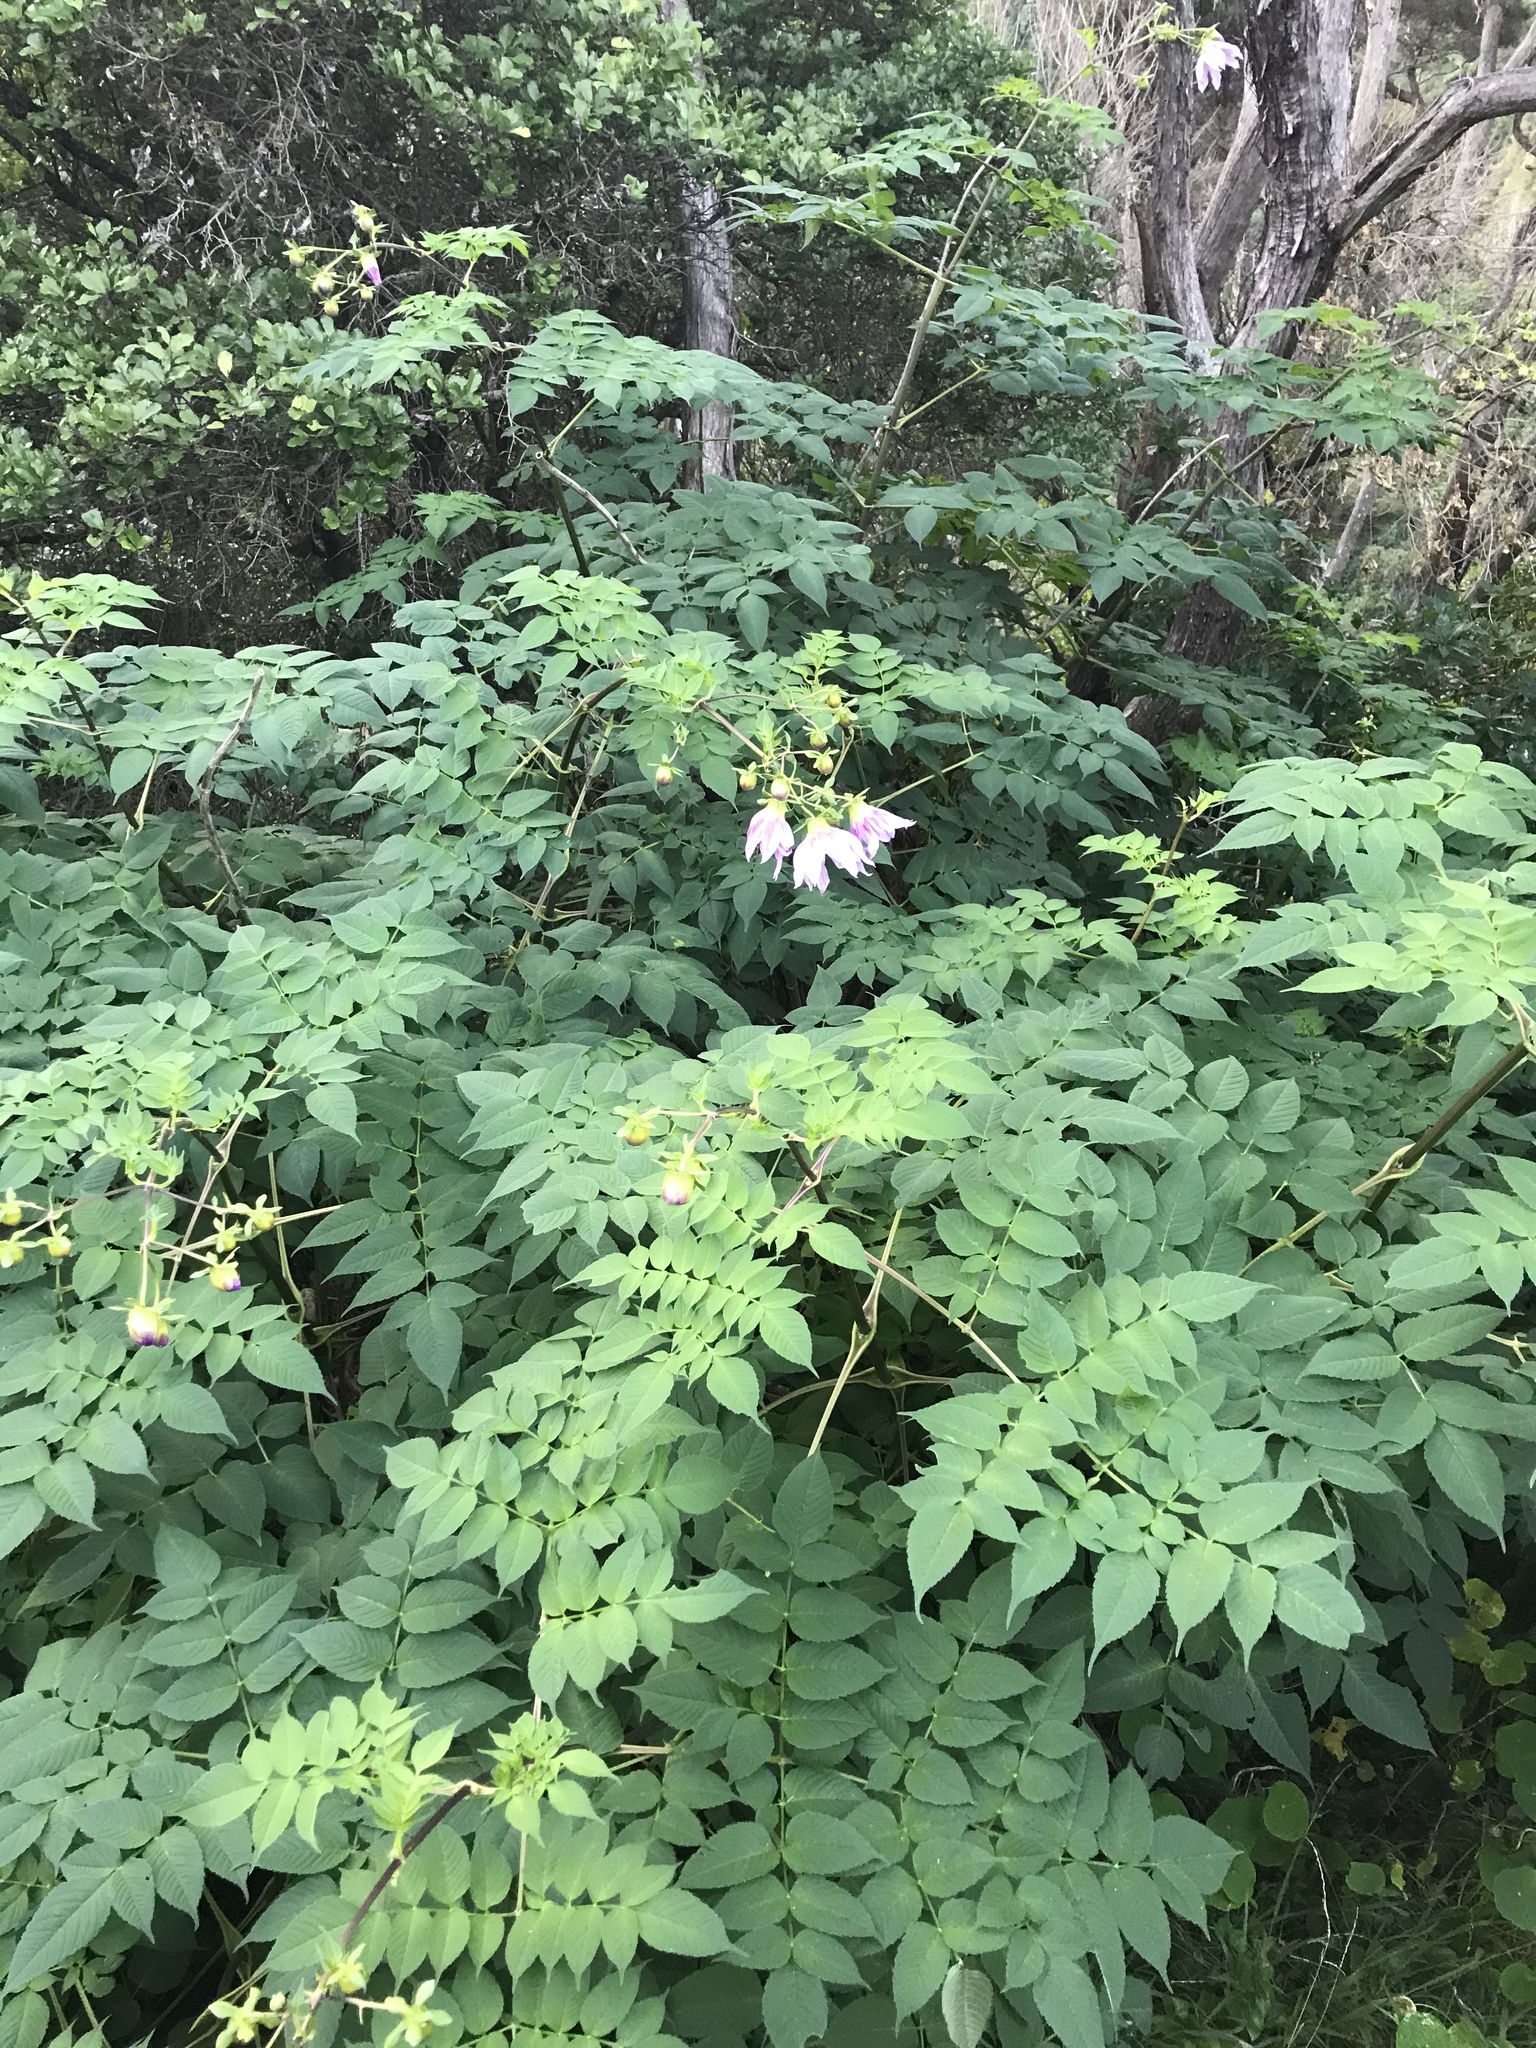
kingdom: Plantae
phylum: Tracheophyta
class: Magnoliopsida
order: Asterales
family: Asteraceae
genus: Dahlia
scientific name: Dahlia imperialis
